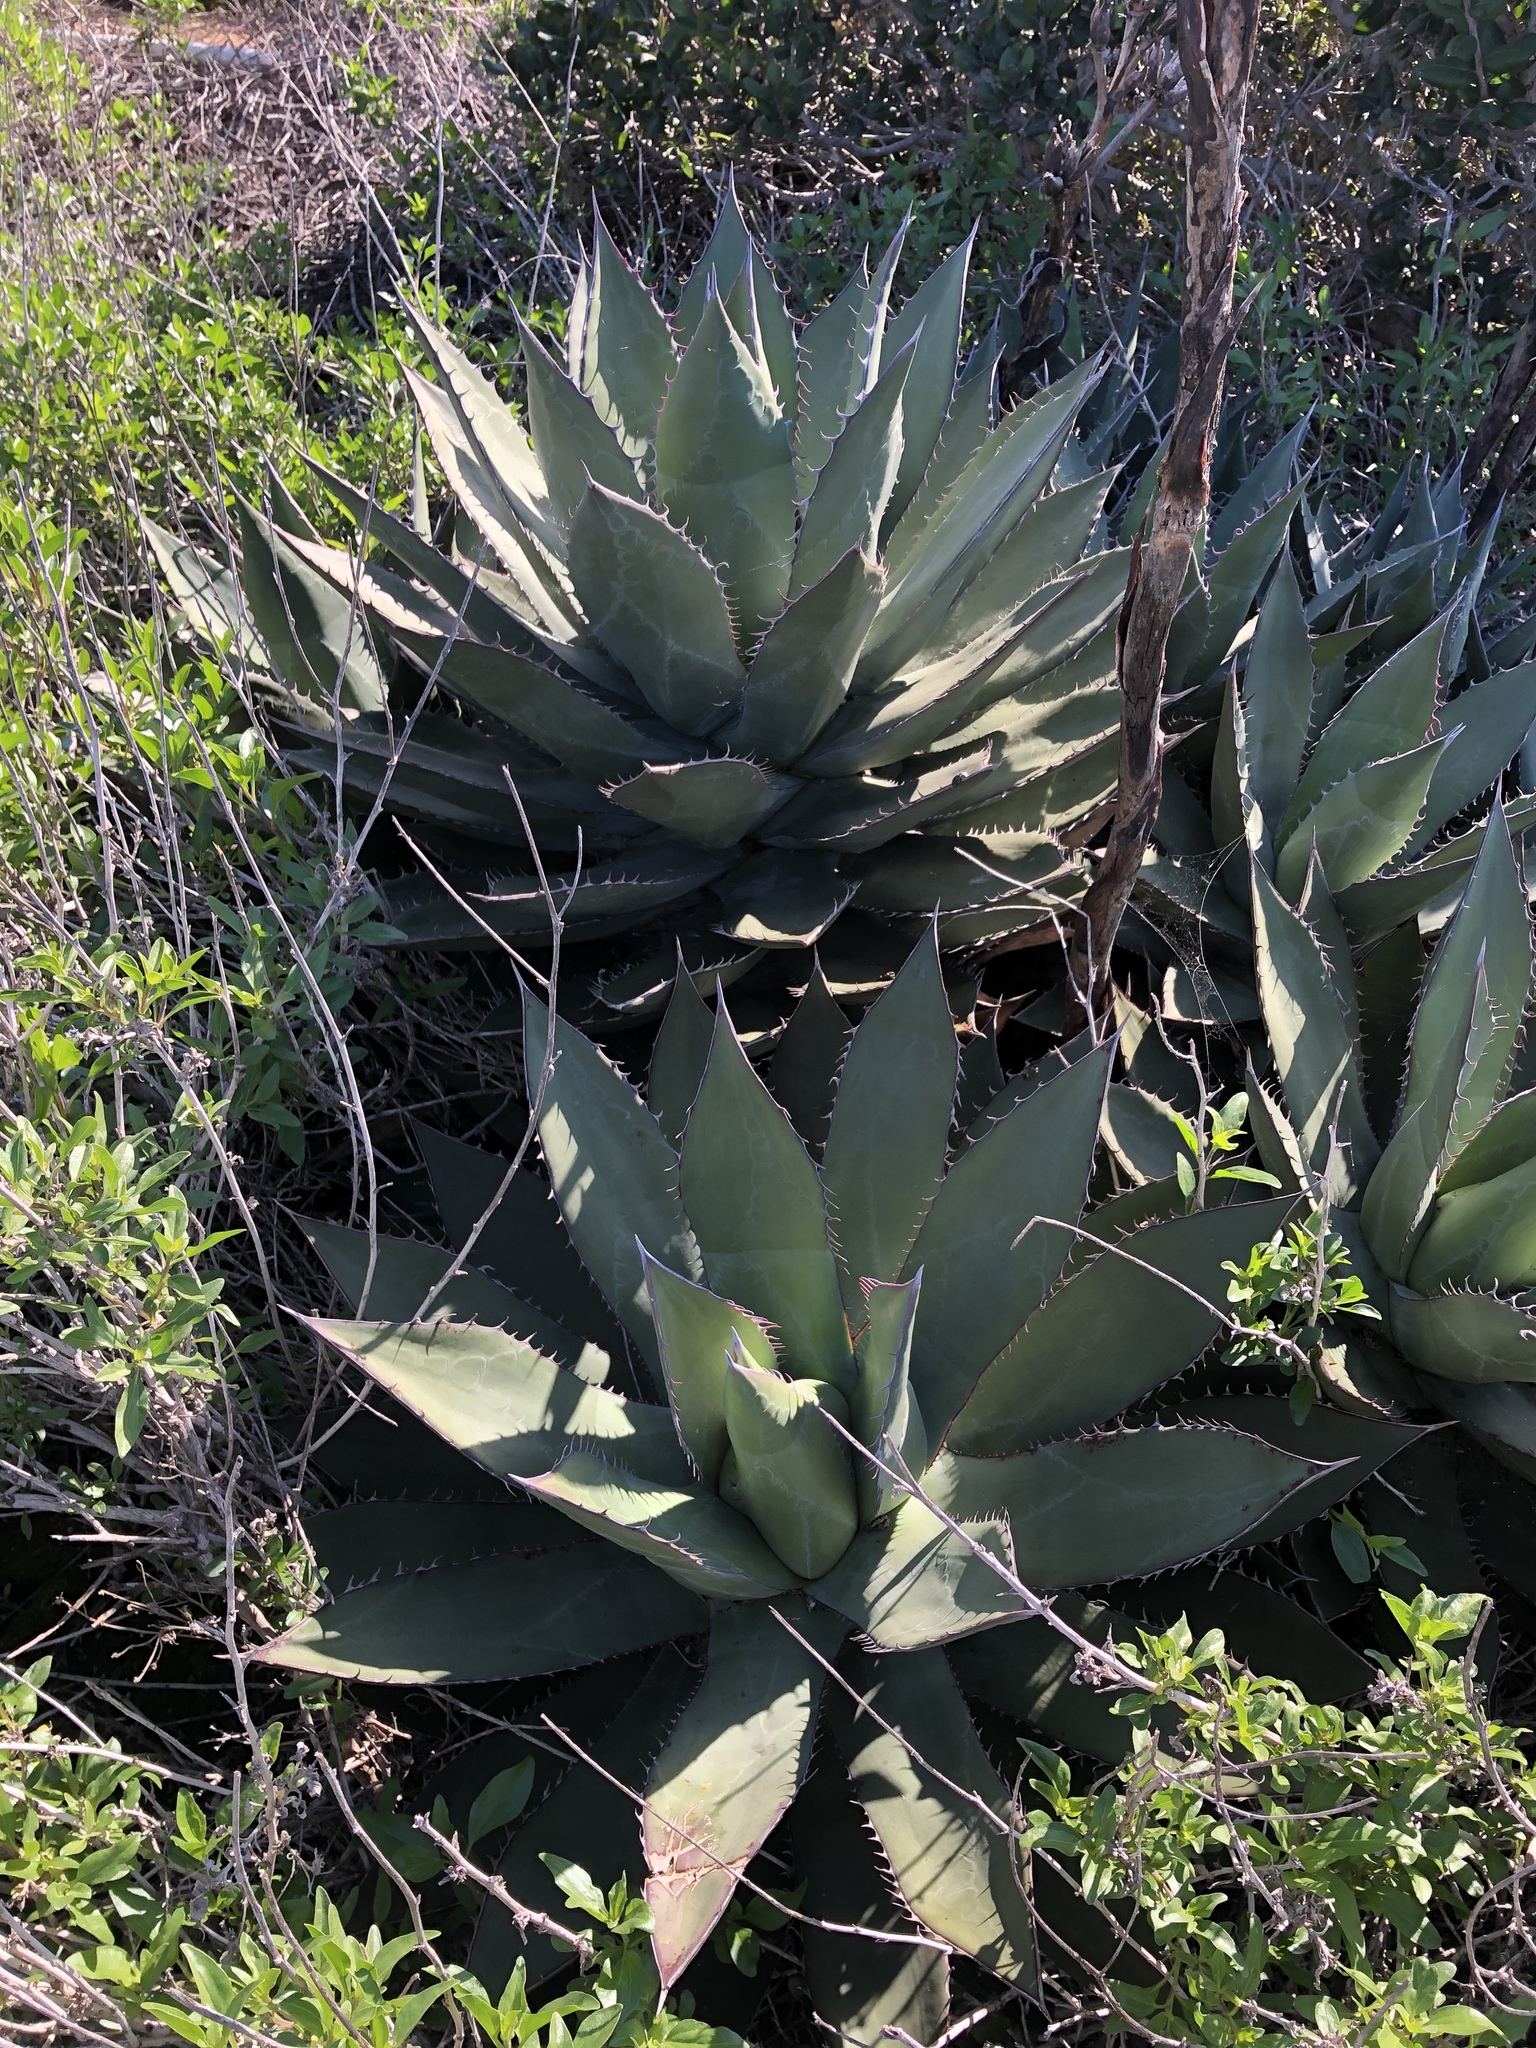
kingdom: Plantae
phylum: Tracheophyta
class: Liliopsida
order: Asparagales
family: Asparagaceae
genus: Agave
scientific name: Agave shawii
